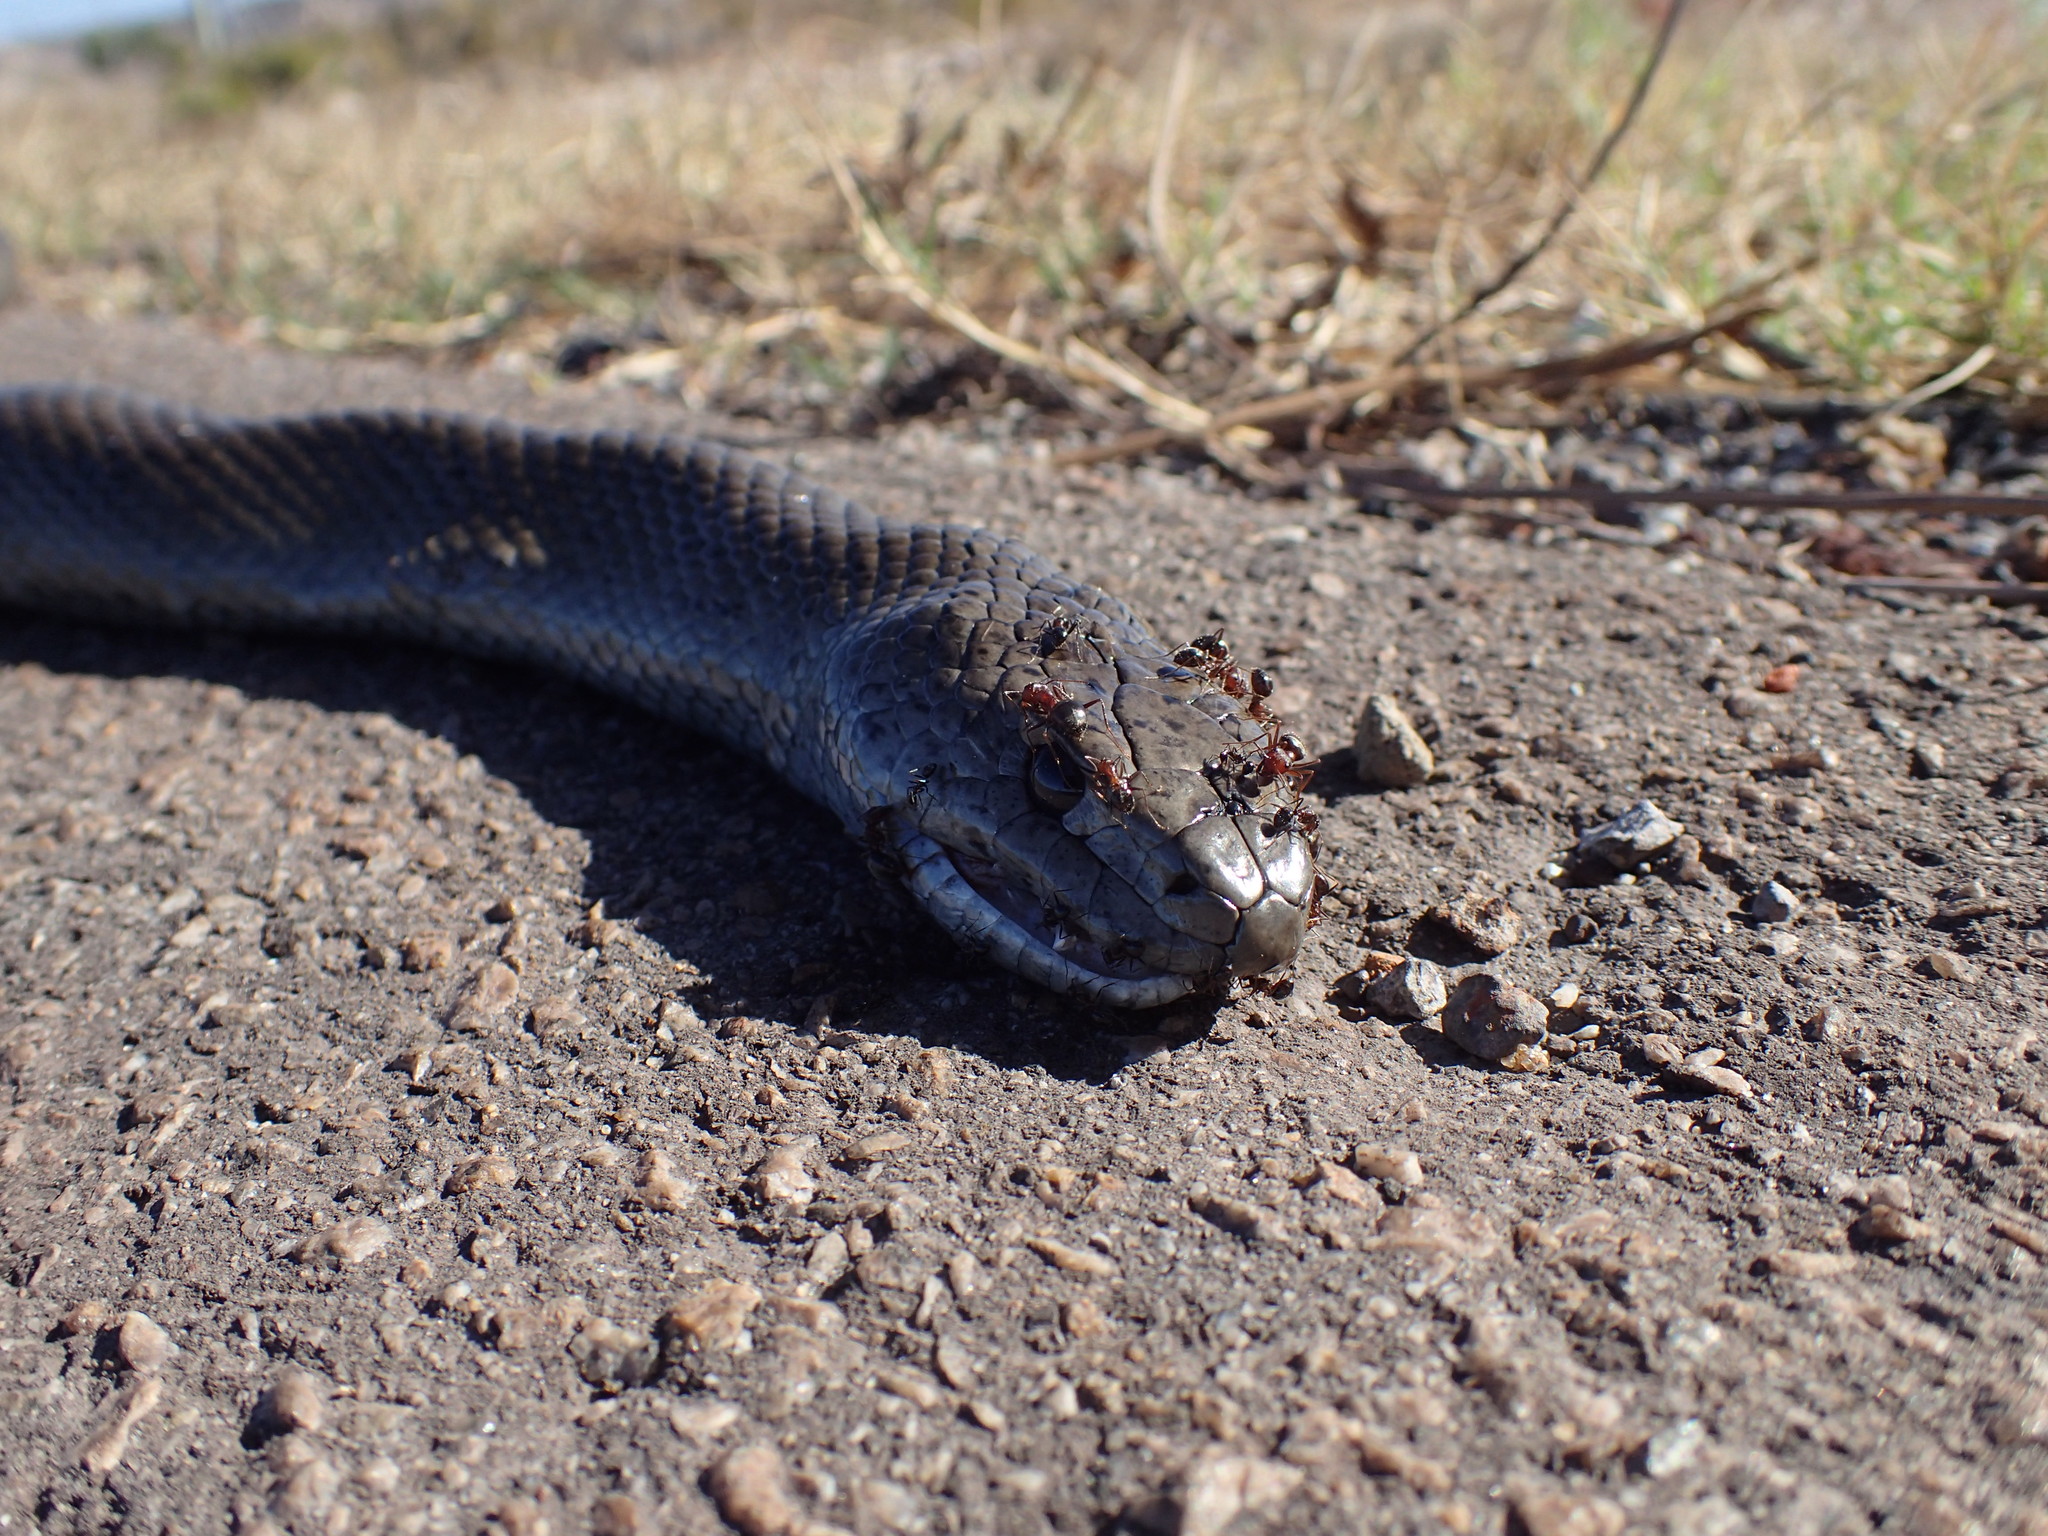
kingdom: Animalia
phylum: Chordata
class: Squamata
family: Pseudaspididae
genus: Pseudaspis
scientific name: Pseudaspis cana
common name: Mole snake
